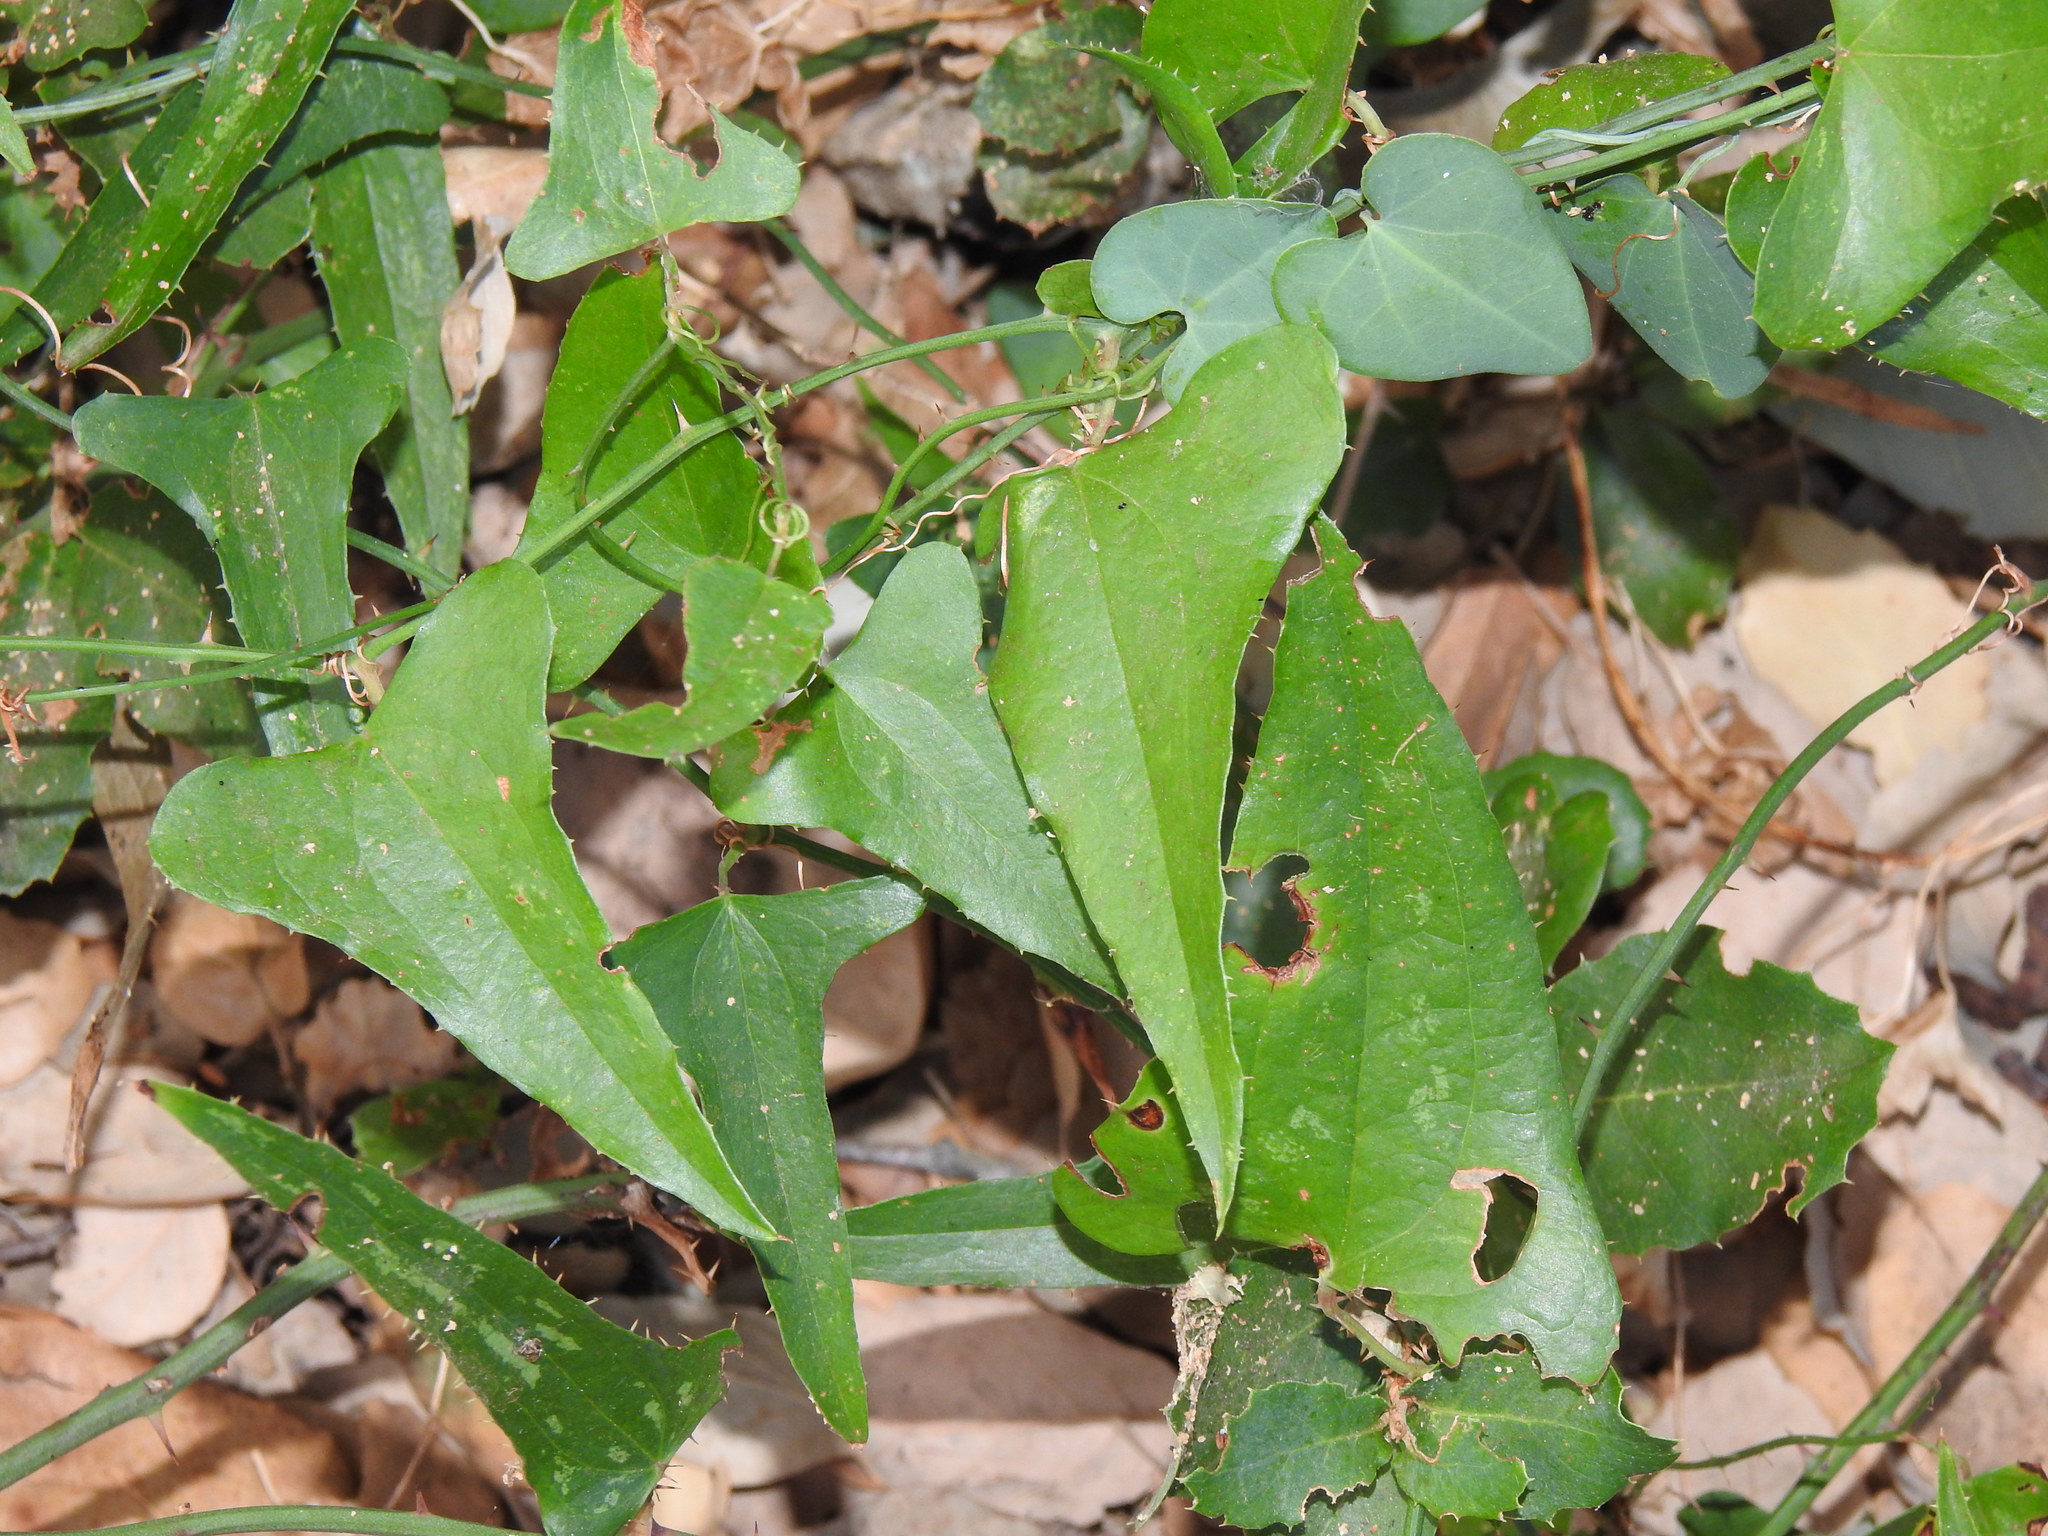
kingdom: Plantae
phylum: Tracheophyta
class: Liliopsida
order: Liliales
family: Smilacaceae
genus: Smilax
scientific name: Smilax aspera
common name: Common smilax
